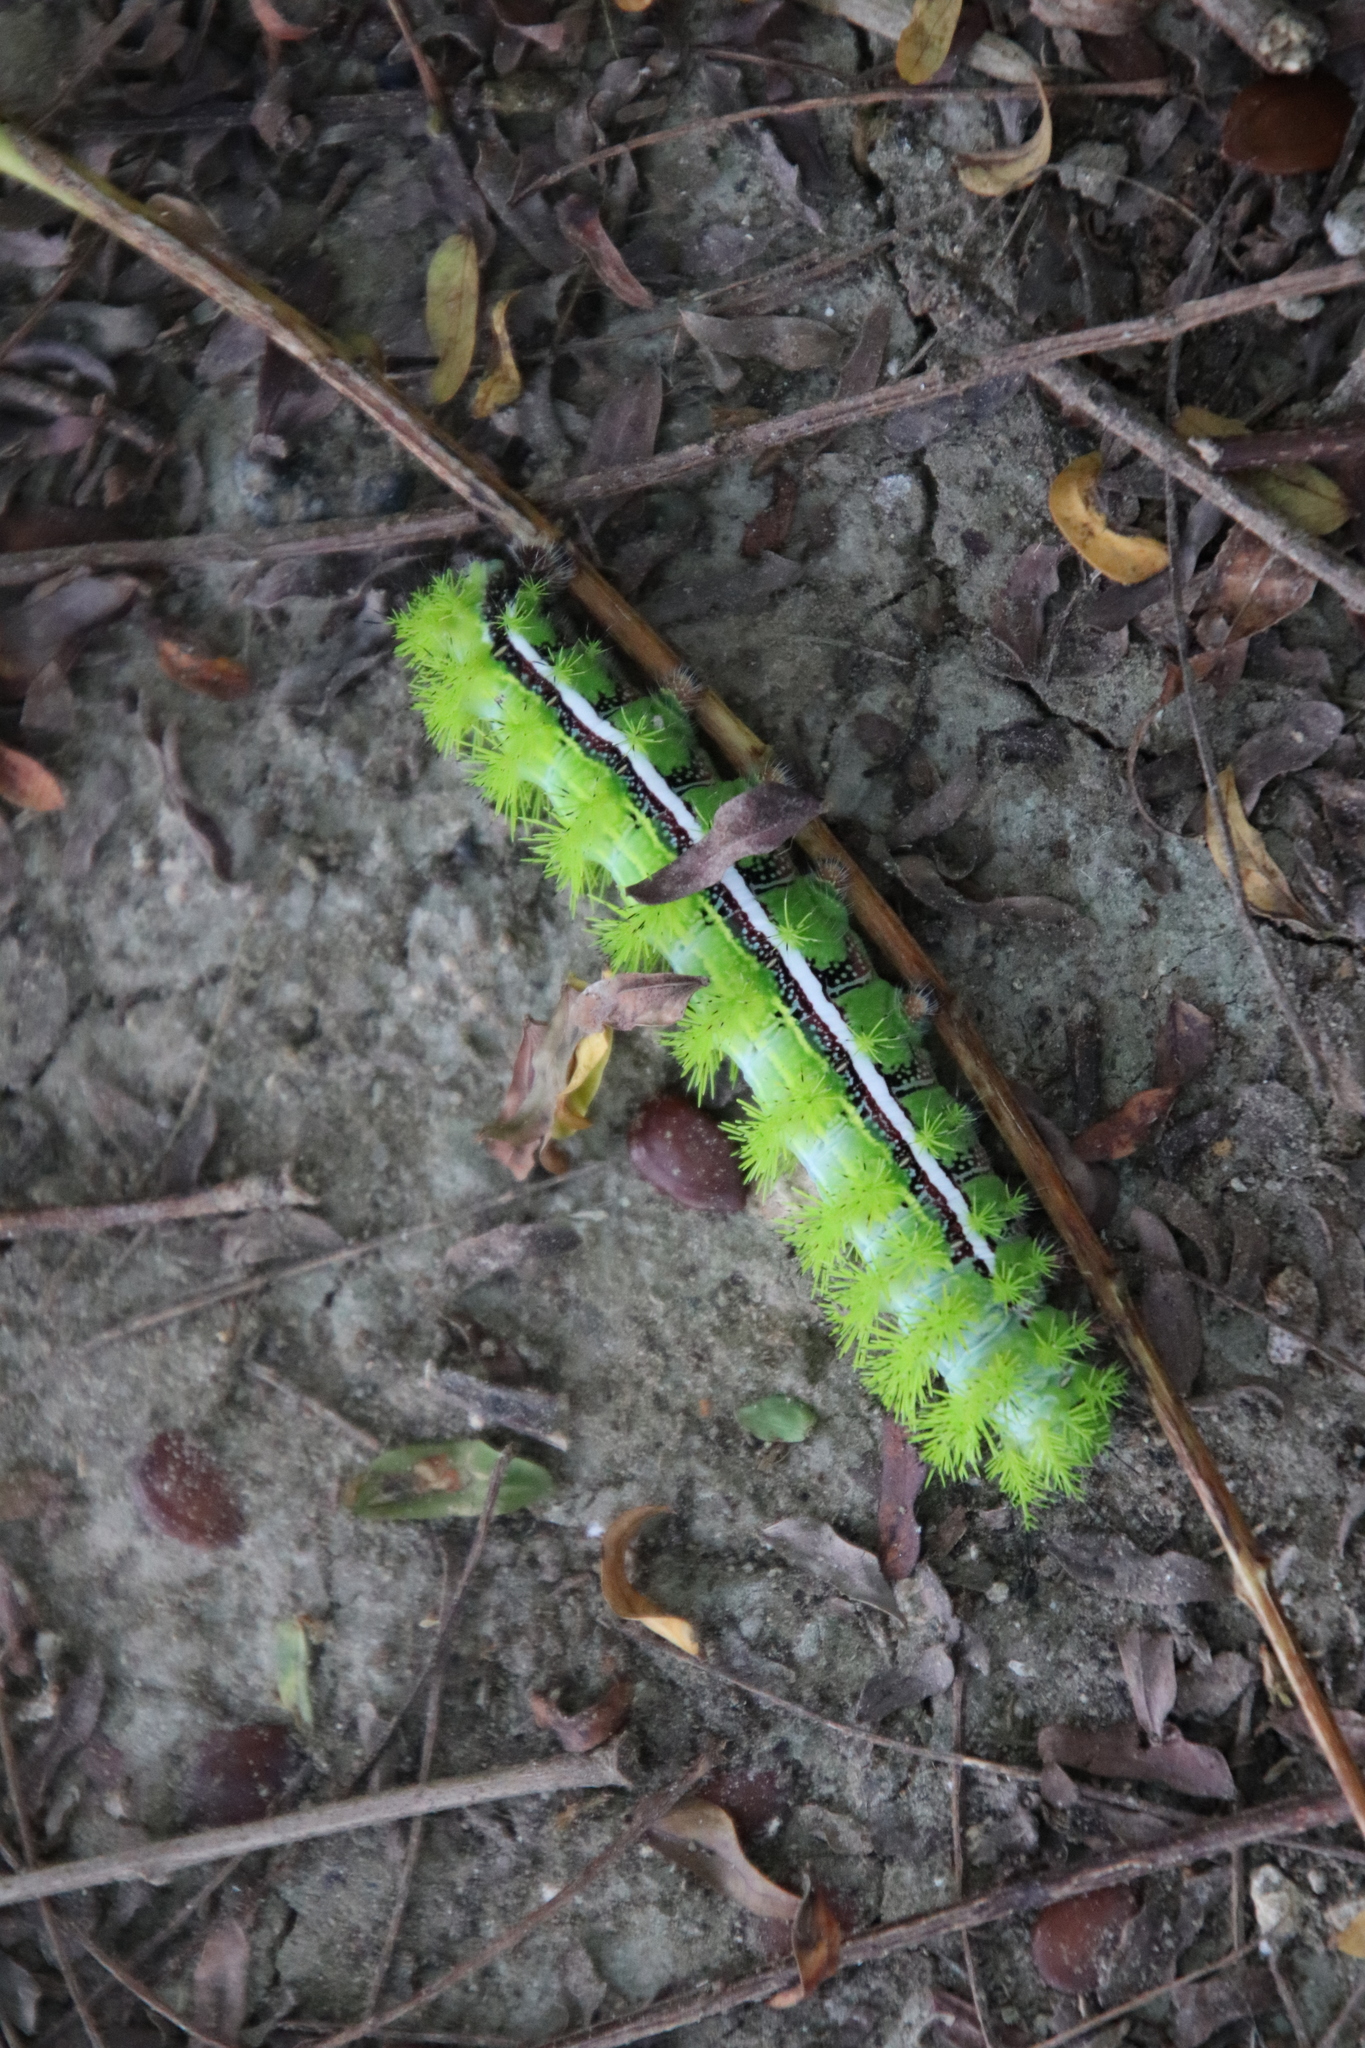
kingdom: Animalia
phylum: Arthropoda
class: Insecta
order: Lepidoptera
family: Saturniidae
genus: Automeris
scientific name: Automeris io
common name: Io moth
